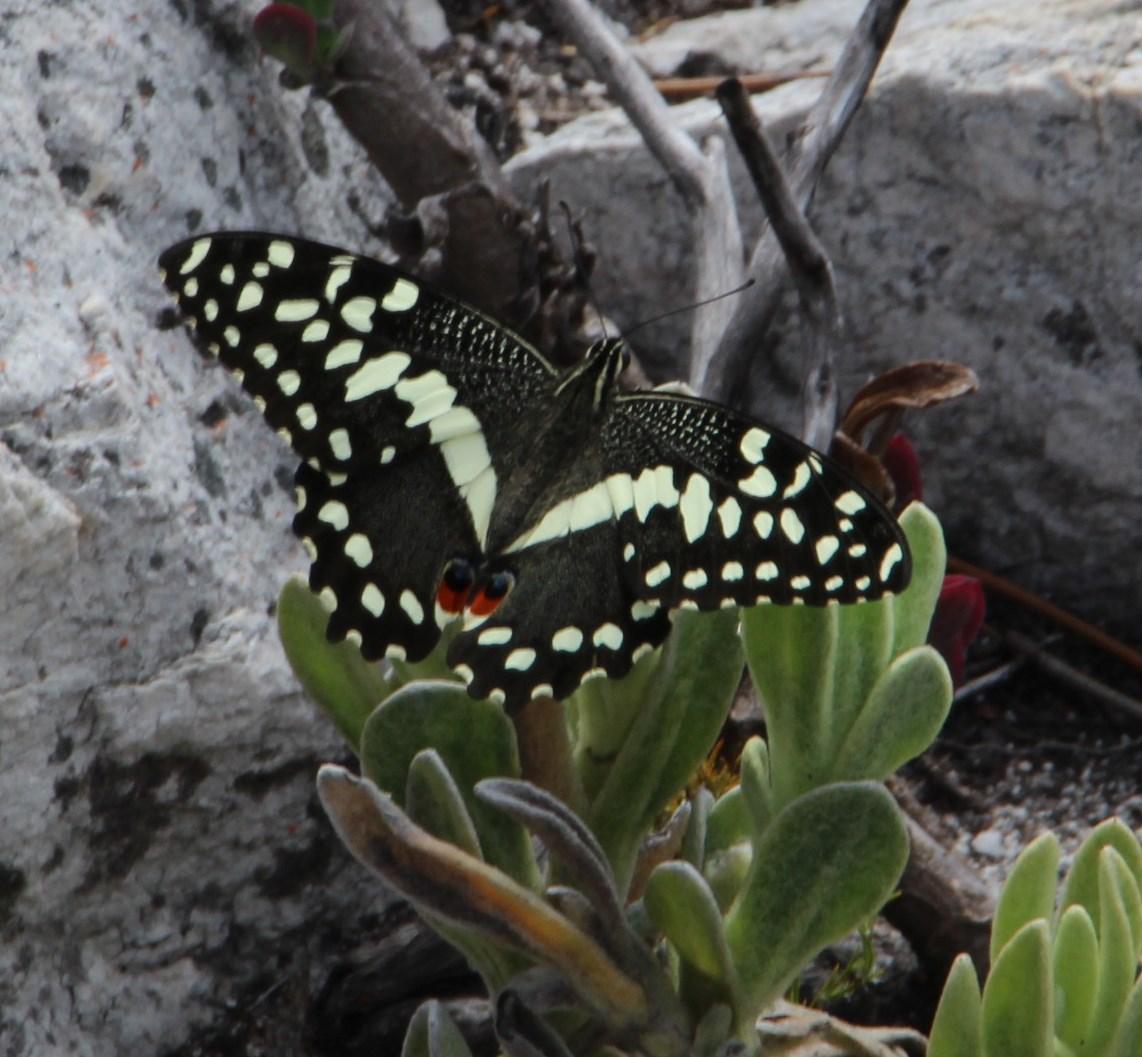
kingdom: Animalia
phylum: Arthropoda
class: Insecta
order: Lepidoptera
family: Papilionidae
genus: Papilio
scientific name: Papilio demodocus
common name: Christmas butterfly
